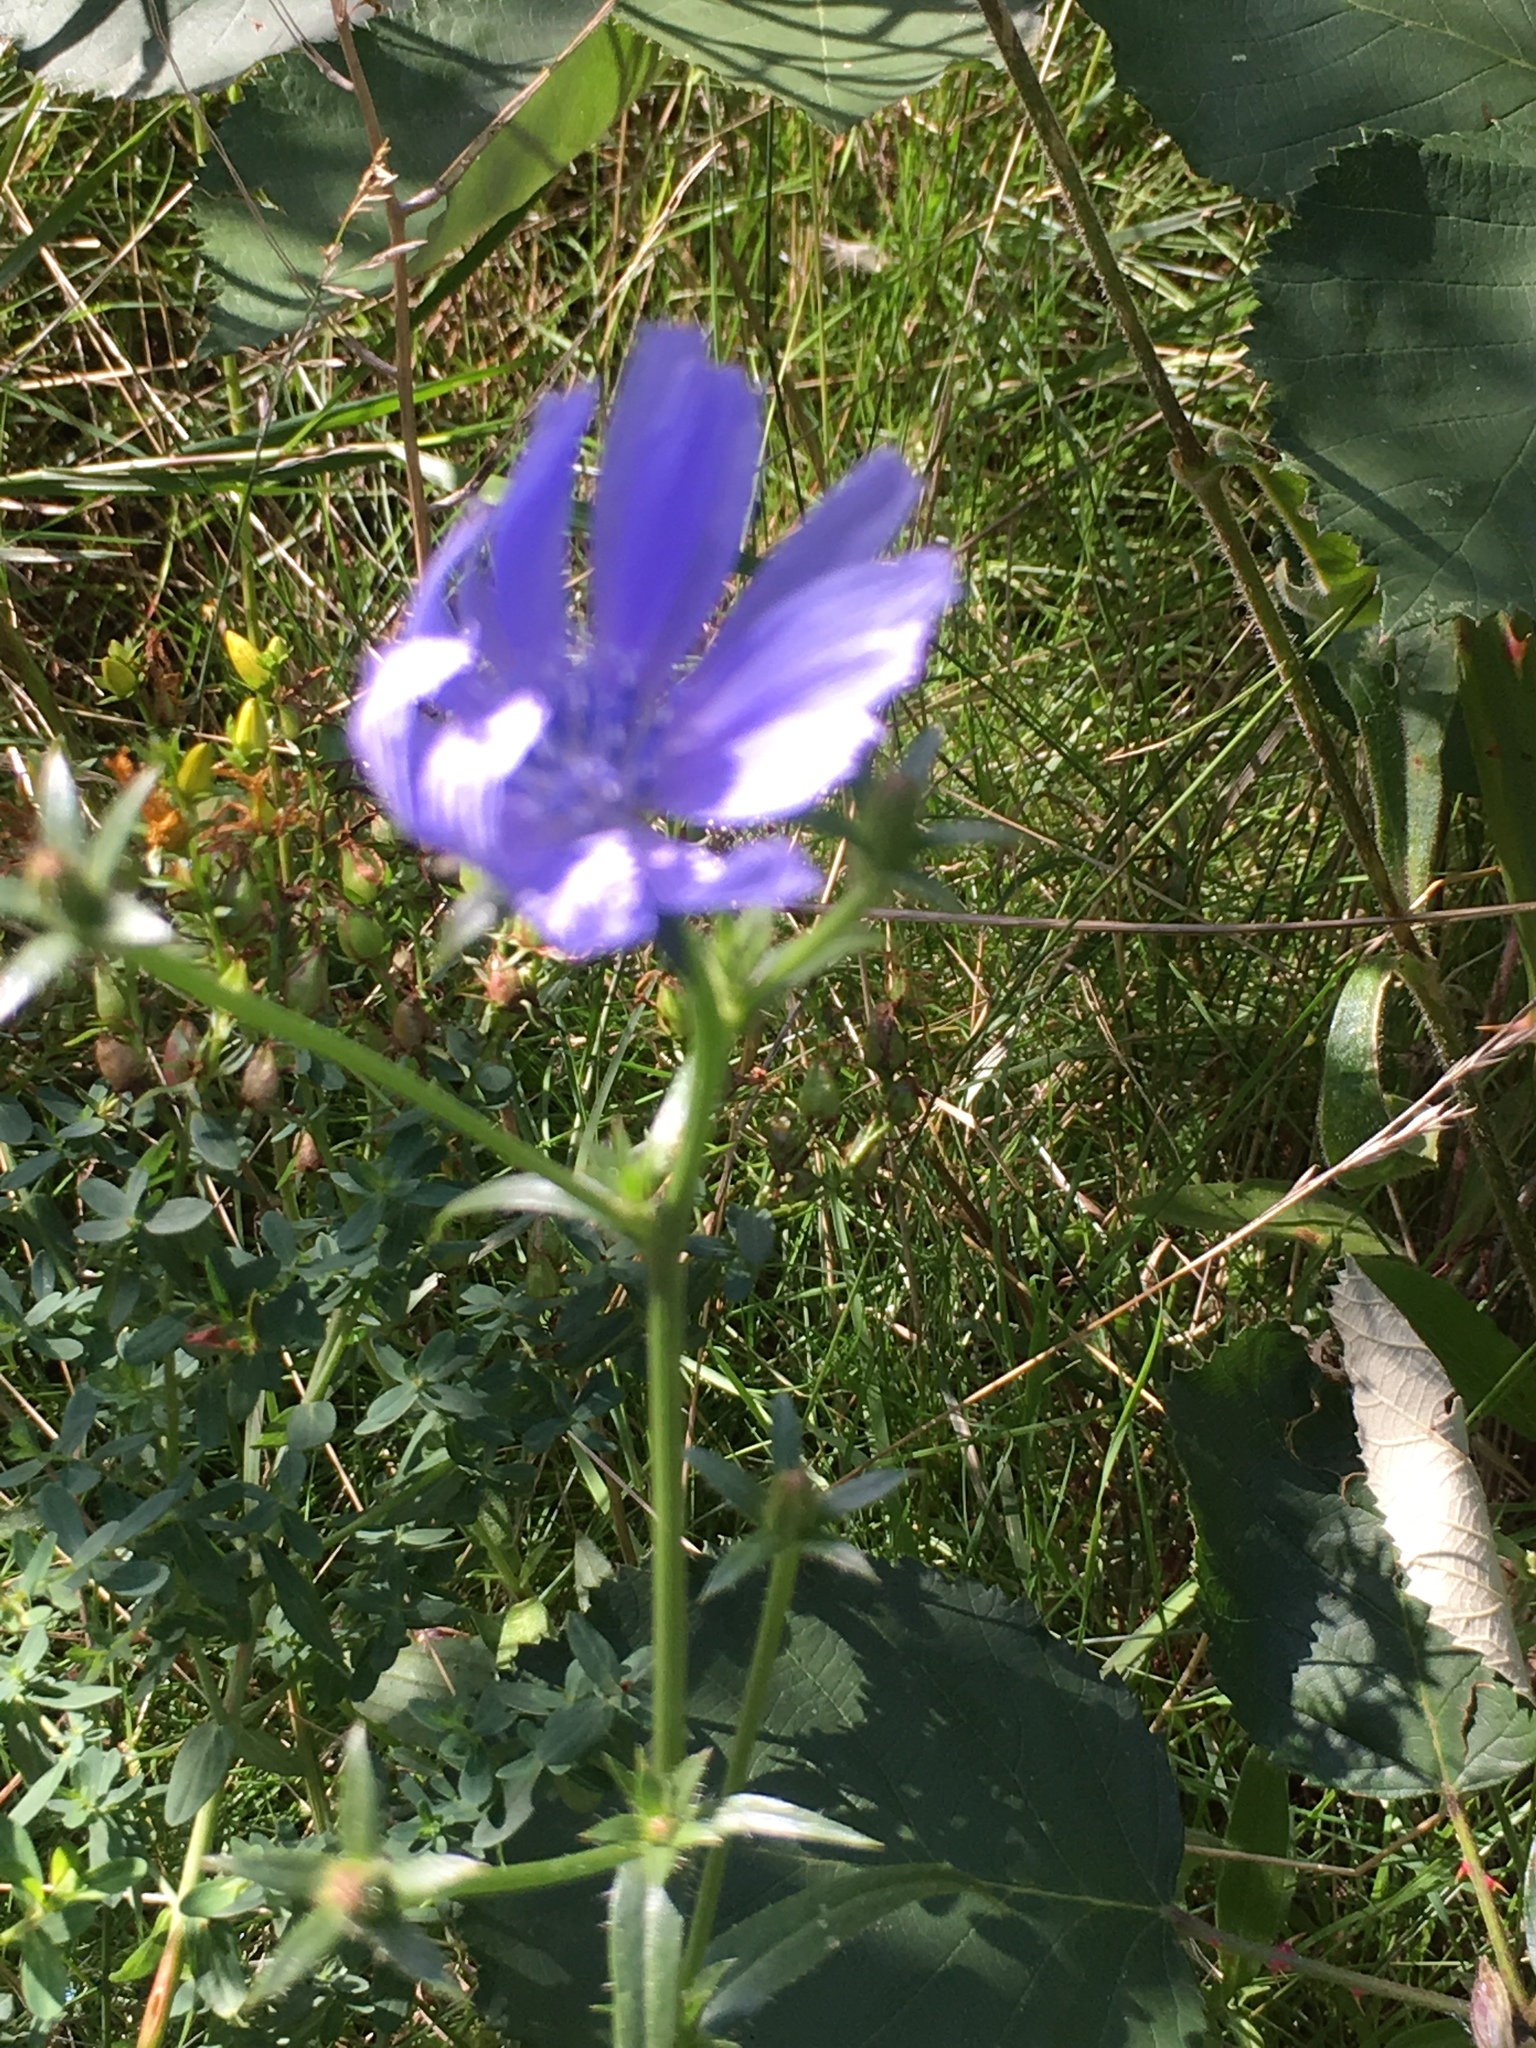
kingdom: Plantae
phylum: Tracheophyta
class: Magnoliopsida
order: Asterales
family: Asteraceae
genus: Cichorium
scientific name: Cichorium intybus
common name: Chicory
